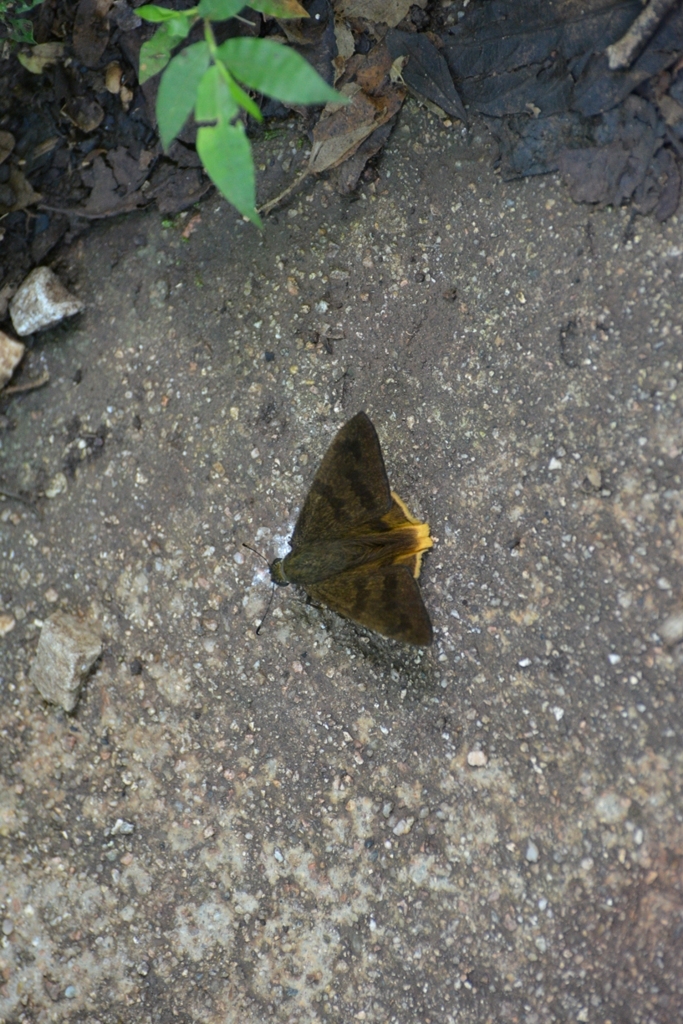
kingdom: Animalia
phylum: Arthropoda
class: Insecta
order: Lepidoptera
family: Hesperiidae
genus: Typhedanus
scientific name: Typhedanus ampyx
